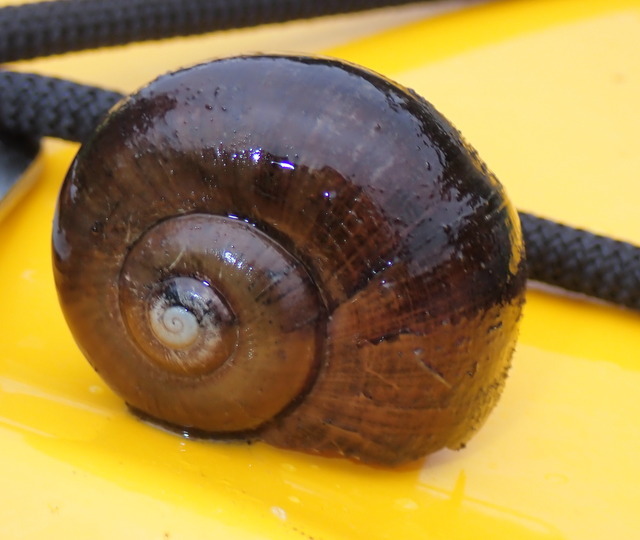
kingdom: Animalia
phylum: Mollusca
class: Gastropoda
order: Architaenioglossa
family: Ampullariidae
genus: Pomacea
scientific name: Pomacea paludosa
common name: Florida applesnail
